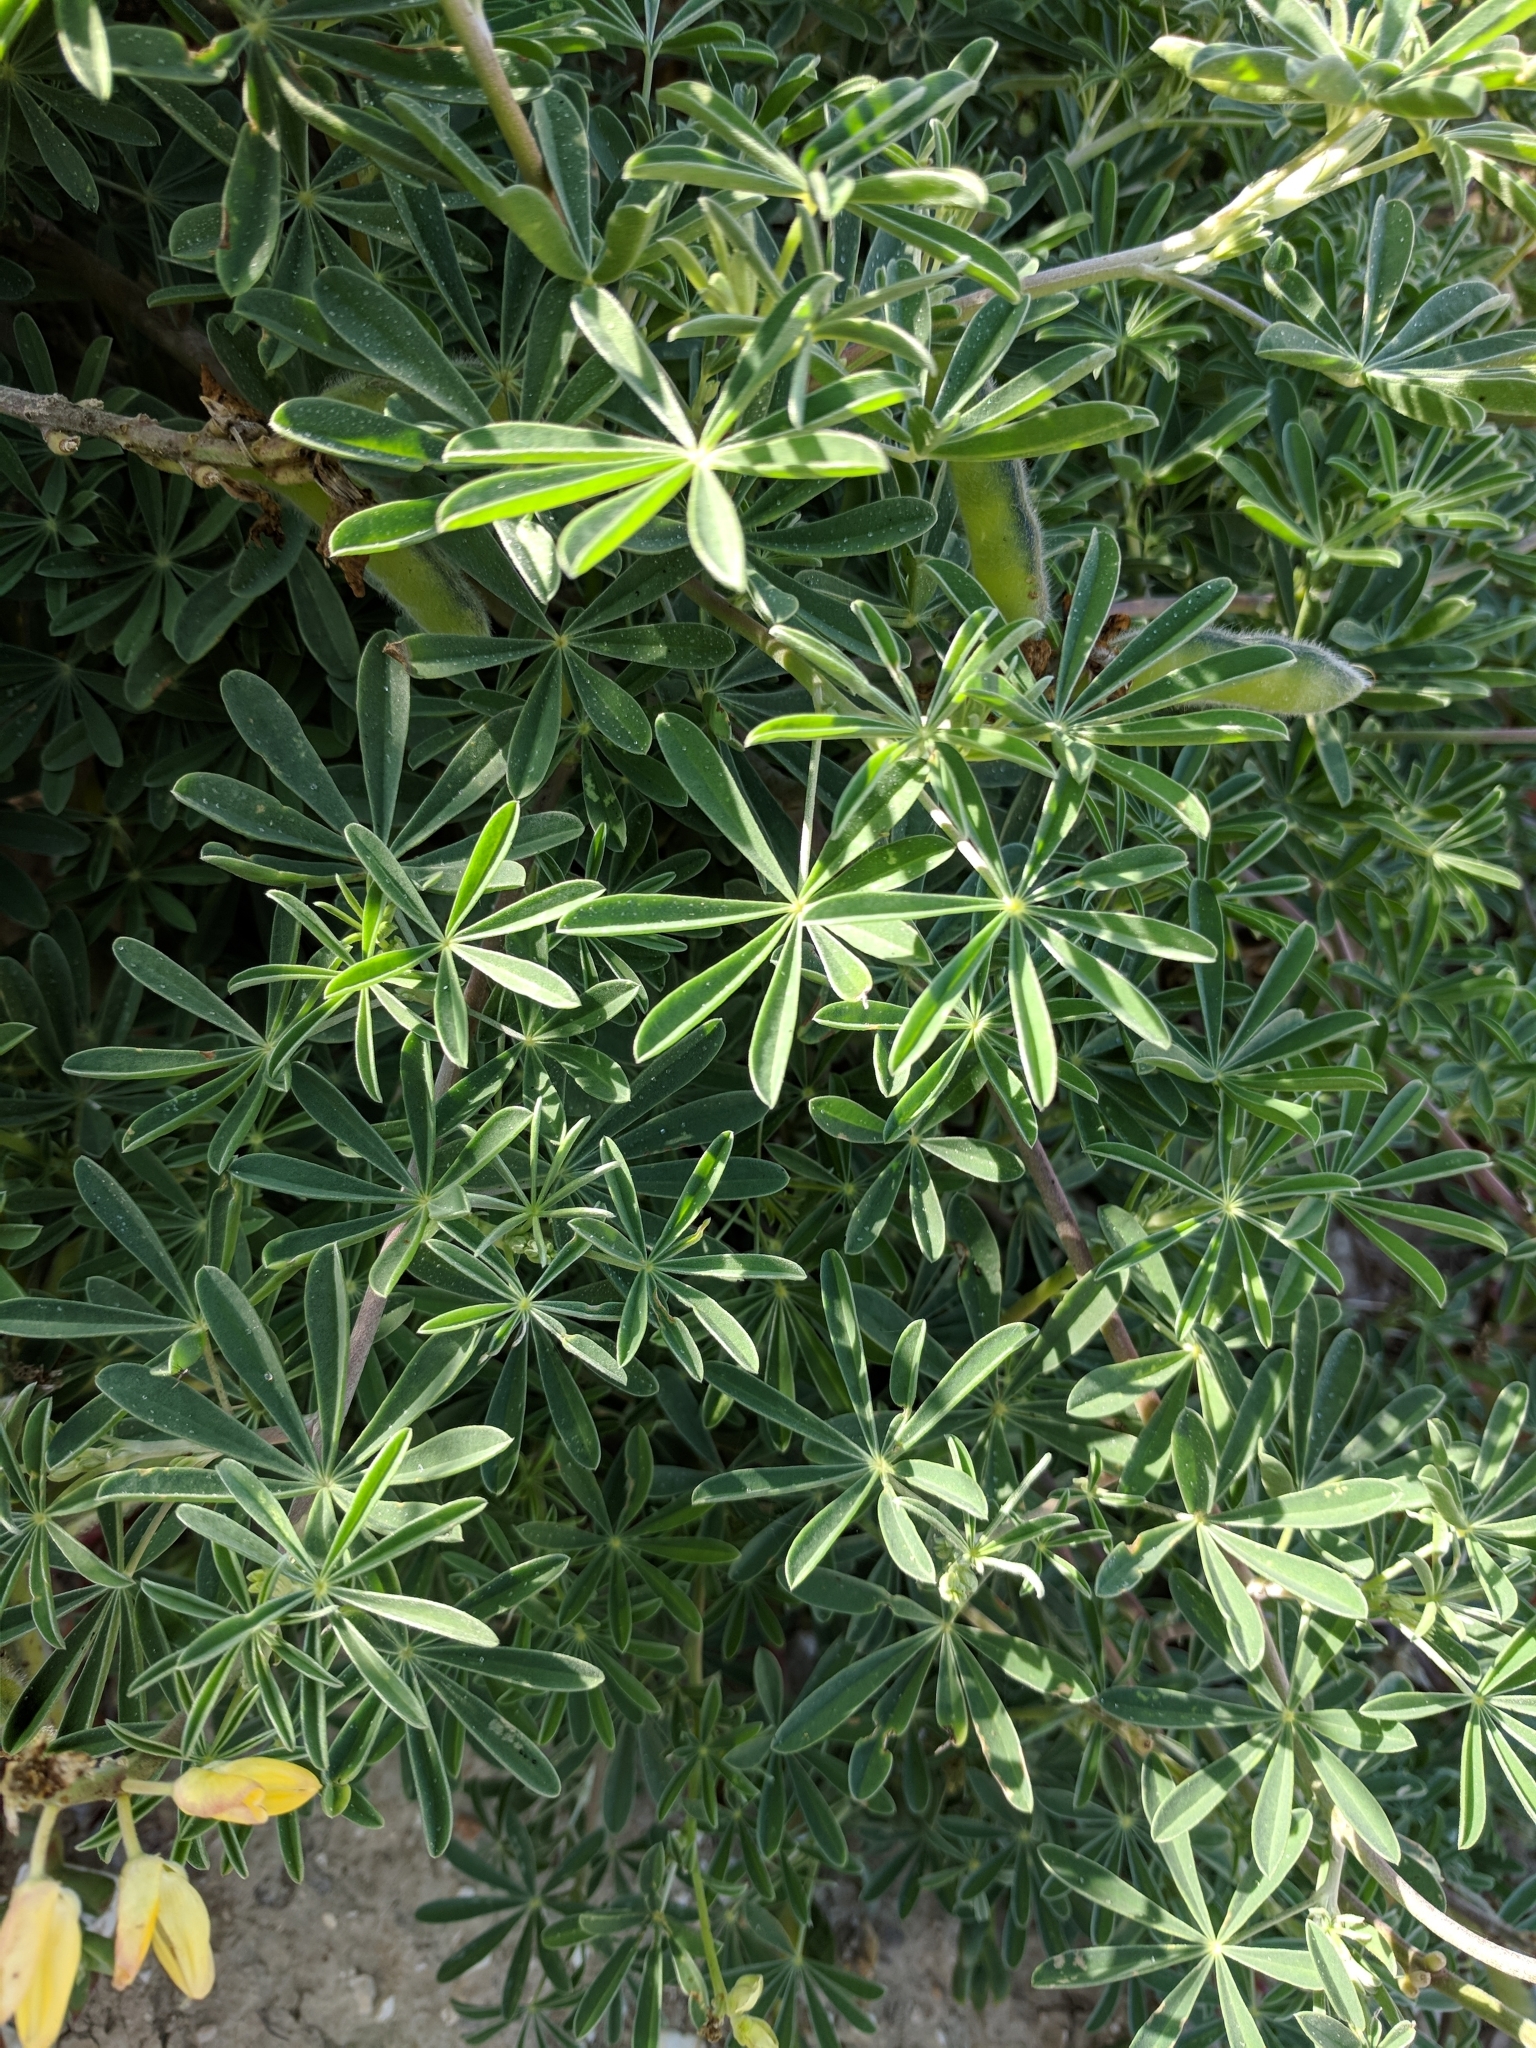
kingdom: Plantae
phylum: Tracheophyta
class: Magnoliopsida
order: Fabales
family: Fabaceae
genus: Lupinus
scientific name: Lupinus arboreus
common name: Yellow bush lupine
